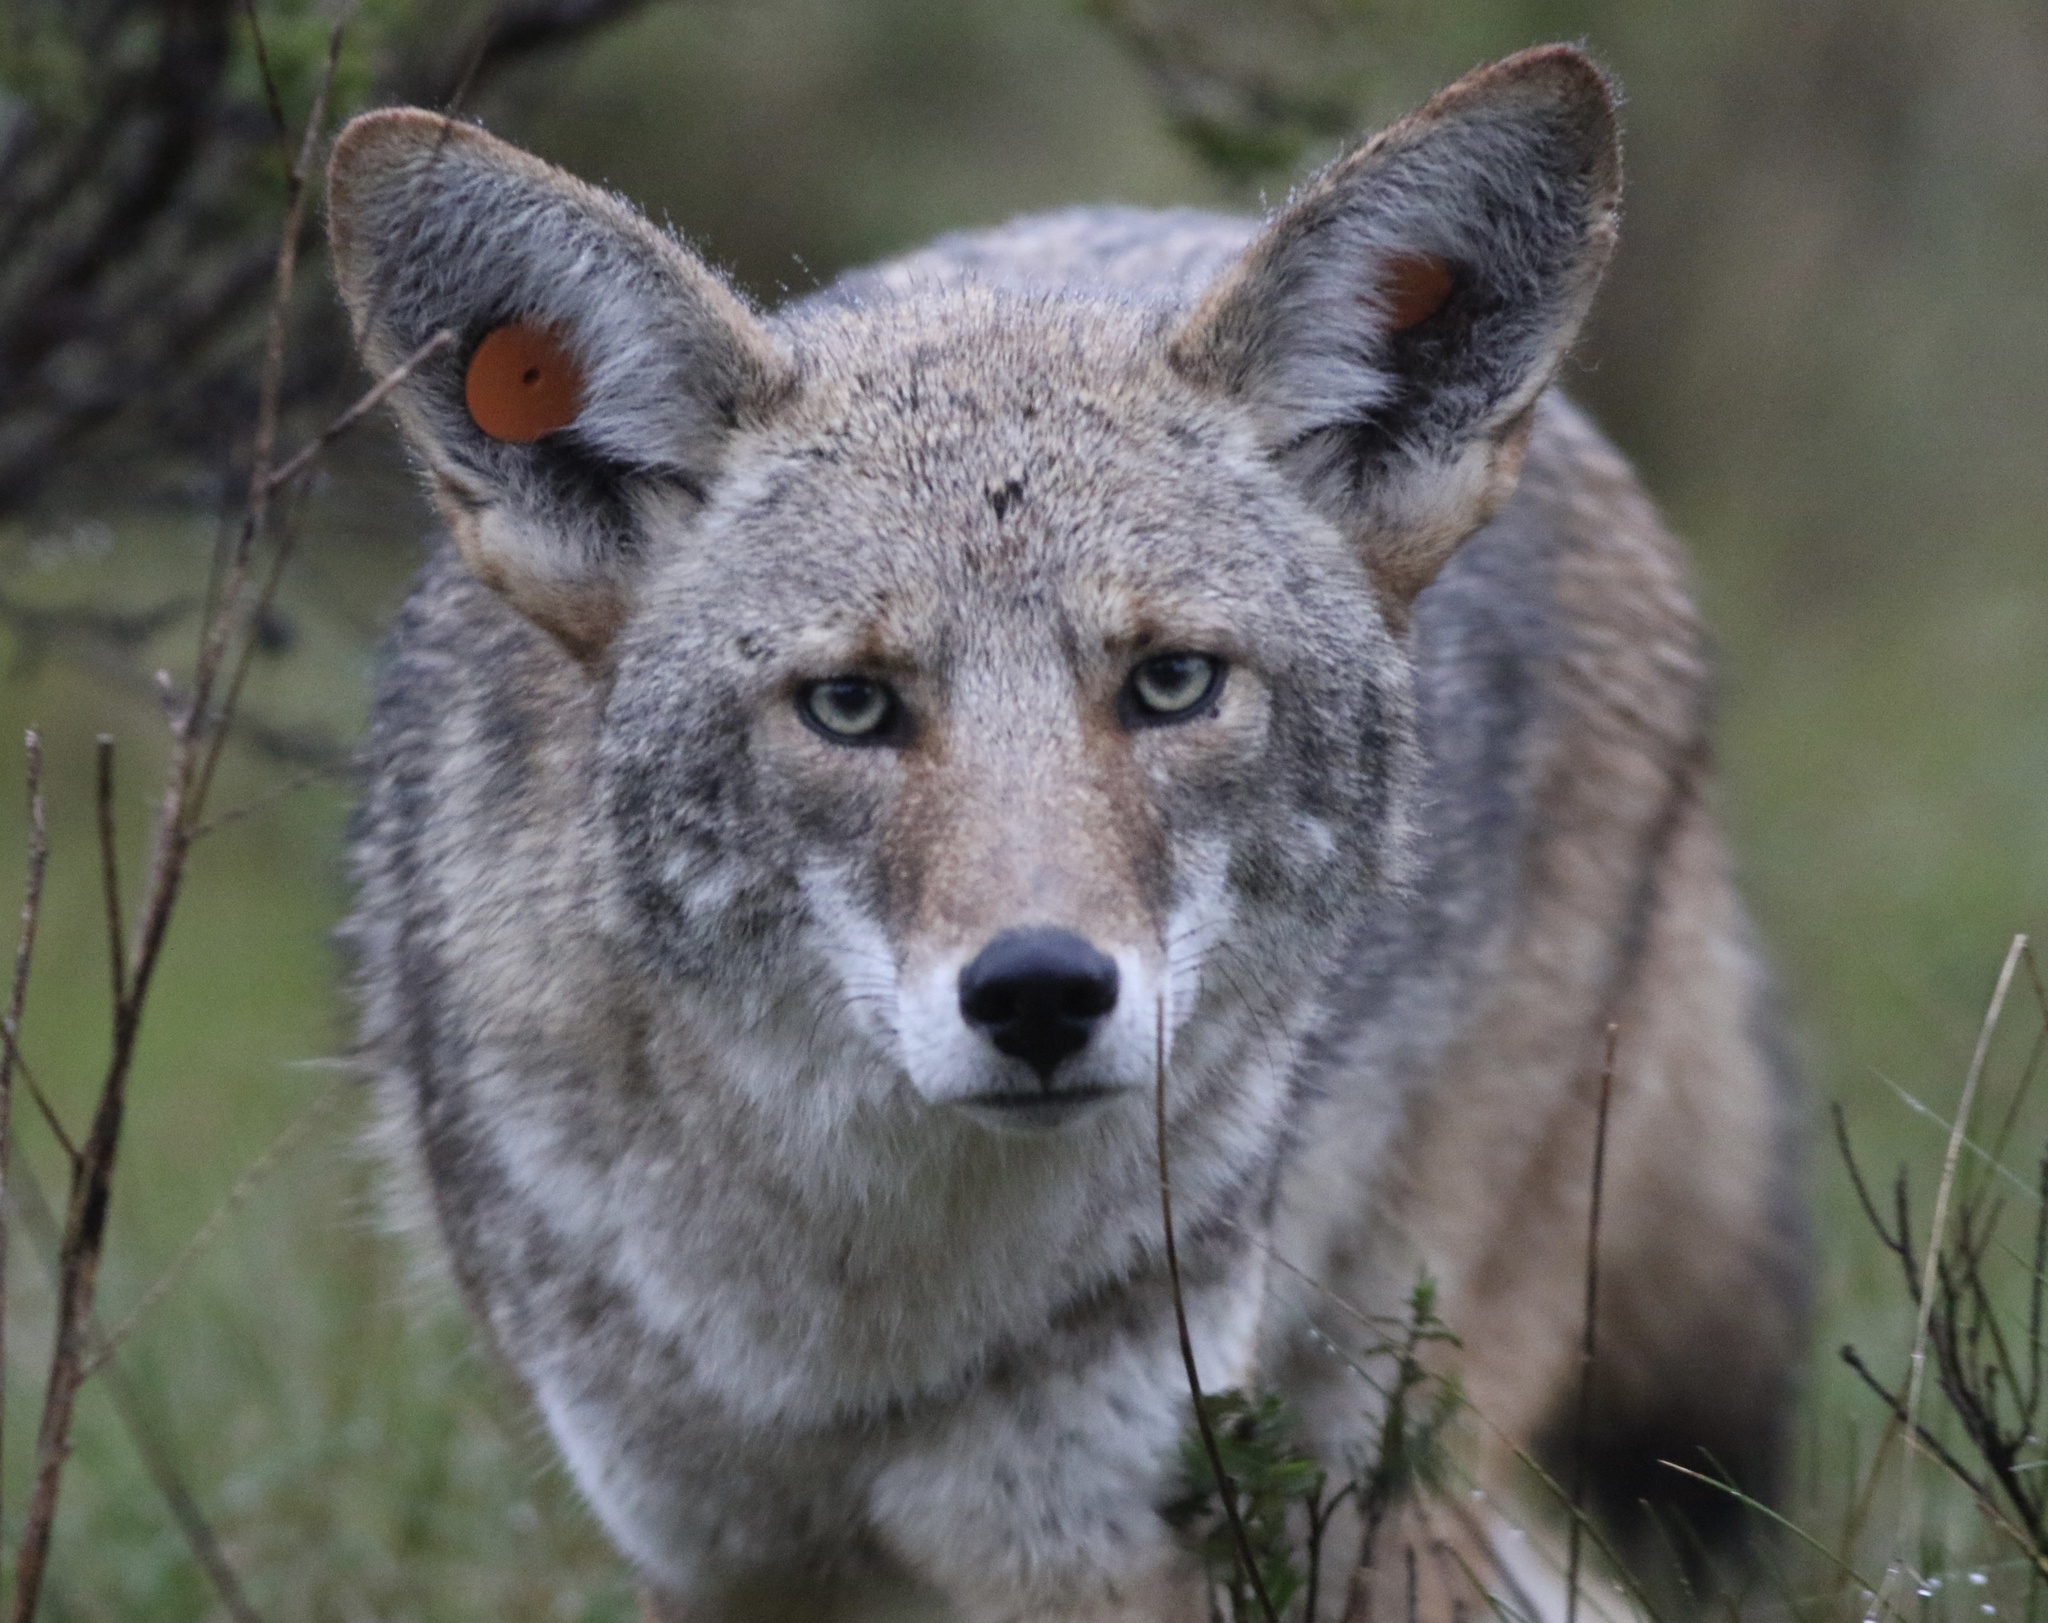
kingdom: Animalia
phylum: Chordata
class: Mammalia
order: Carnivora
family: Canidae
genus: Canis
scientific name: Canis latrans
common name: Coyote
